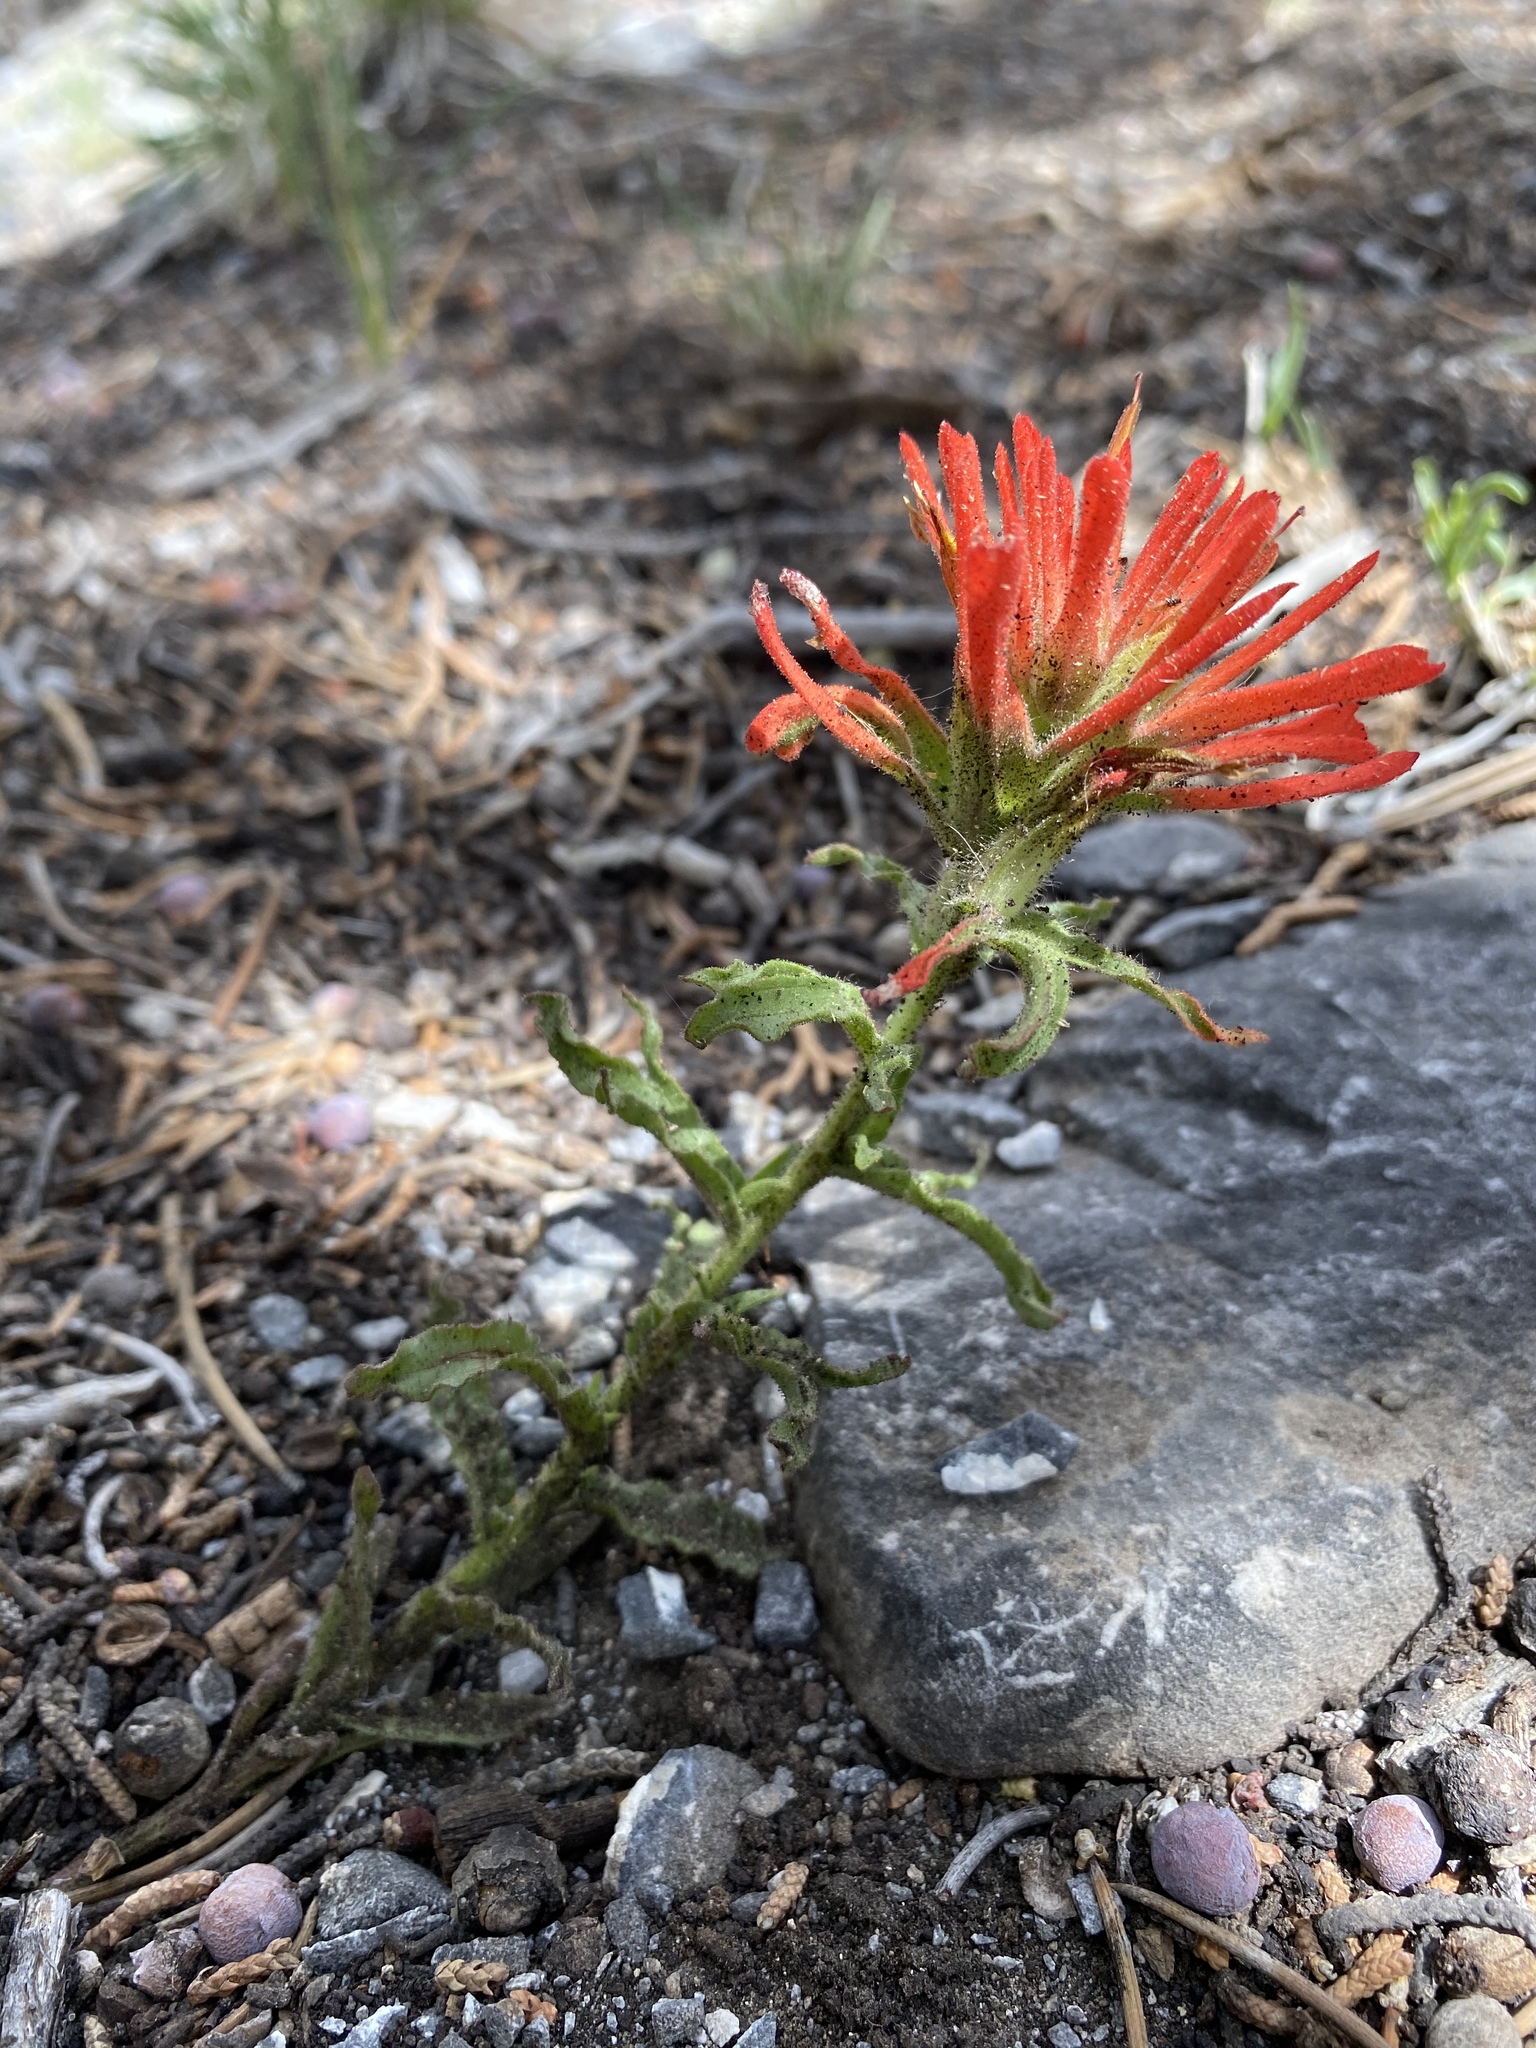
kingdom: Plantae
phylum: Tracheophyta
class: Magnoliopsida
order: Lamiales
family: Orobanchaceae
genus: Castilleja
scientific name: Castilleja martini
